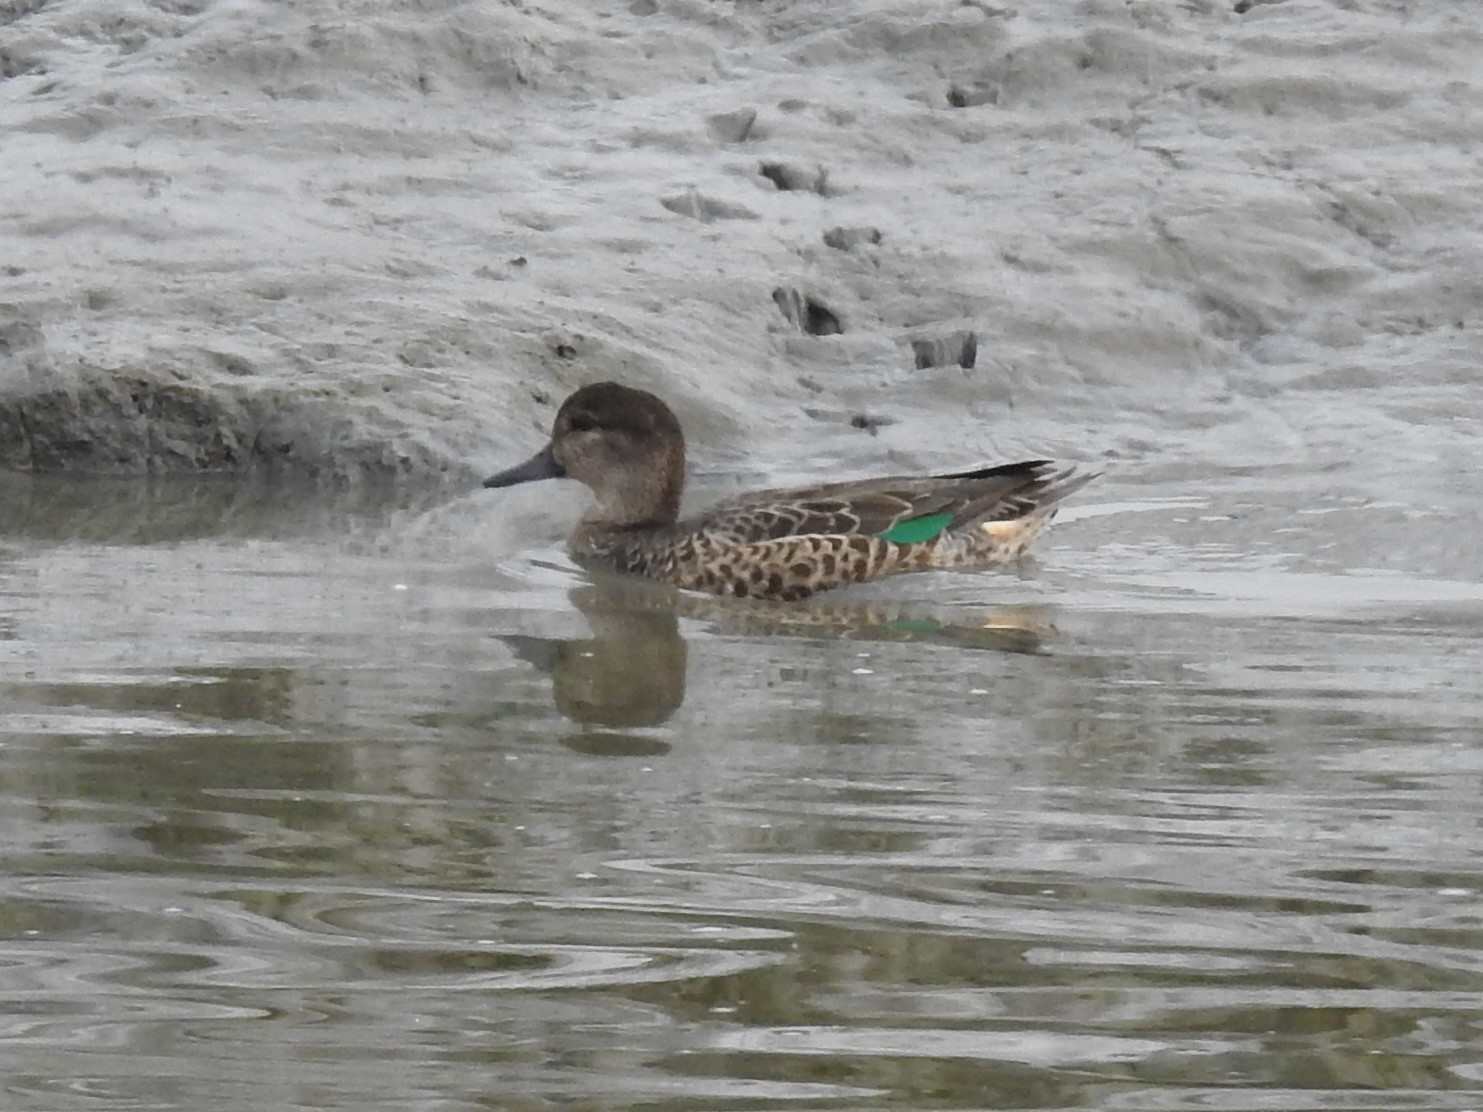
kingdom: Animalia
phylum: Chordata
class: Aves
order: Anseriformes
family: Anatidae
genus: Anas
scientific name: Anas crecca
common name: Eurasian teal
